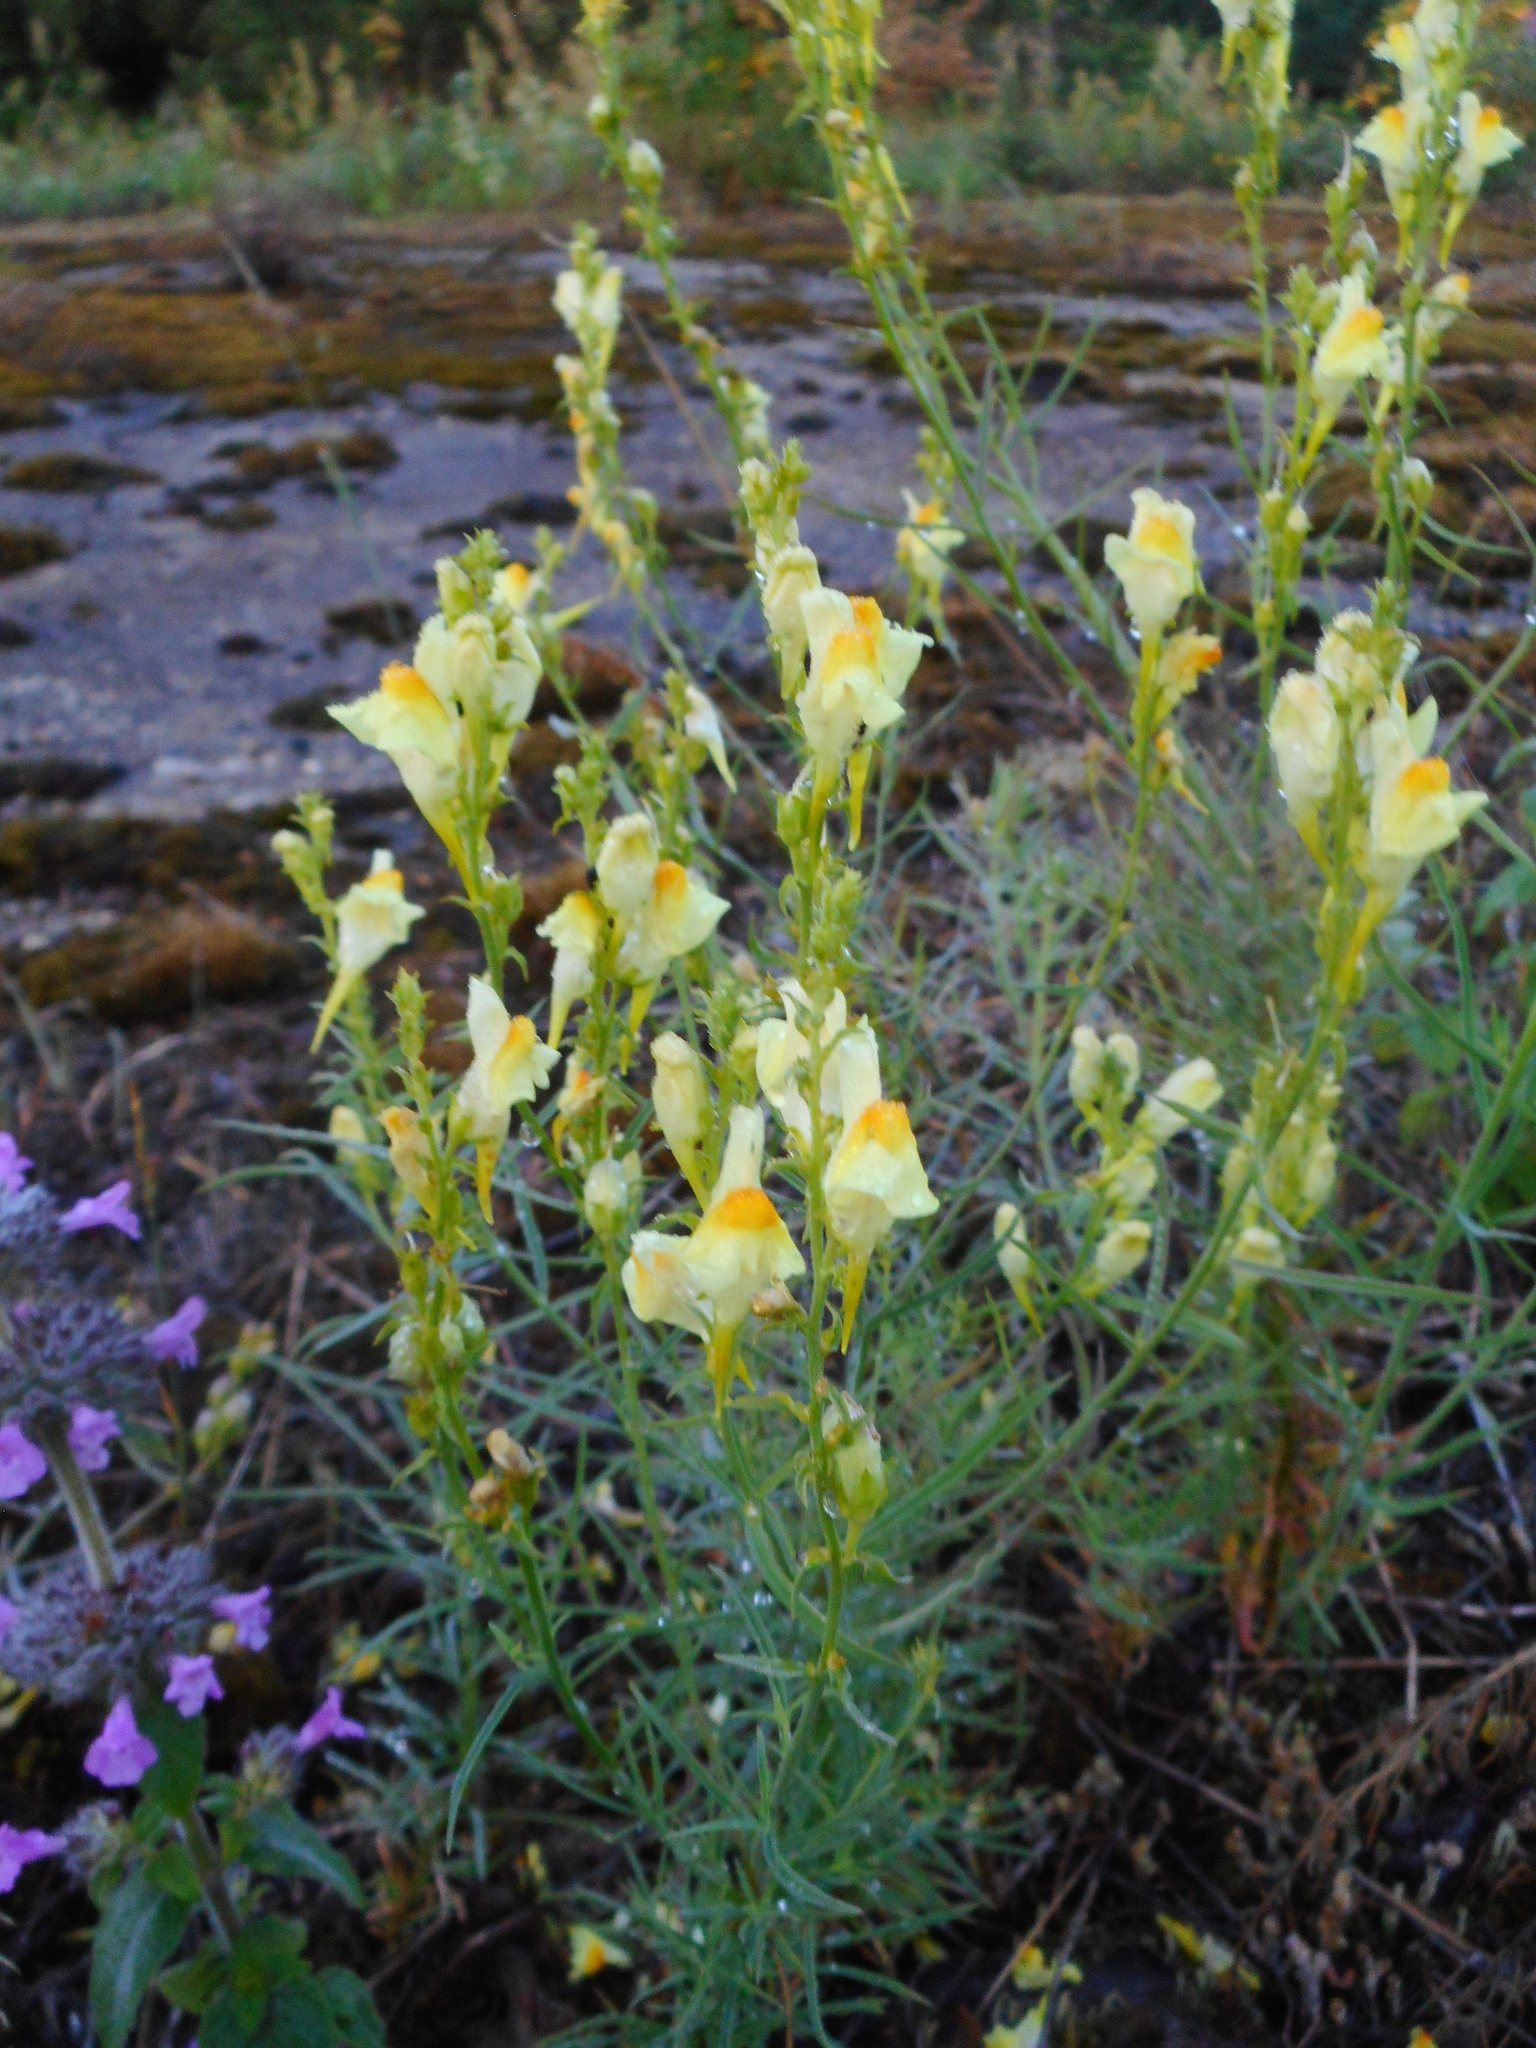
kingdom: Plantae
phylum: Tracheophyta
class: Magnoliopsida
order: Lamiales
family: Plantaginaceae
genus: Linaria
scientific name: Linaria vulgaris
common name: Butter and eggs
